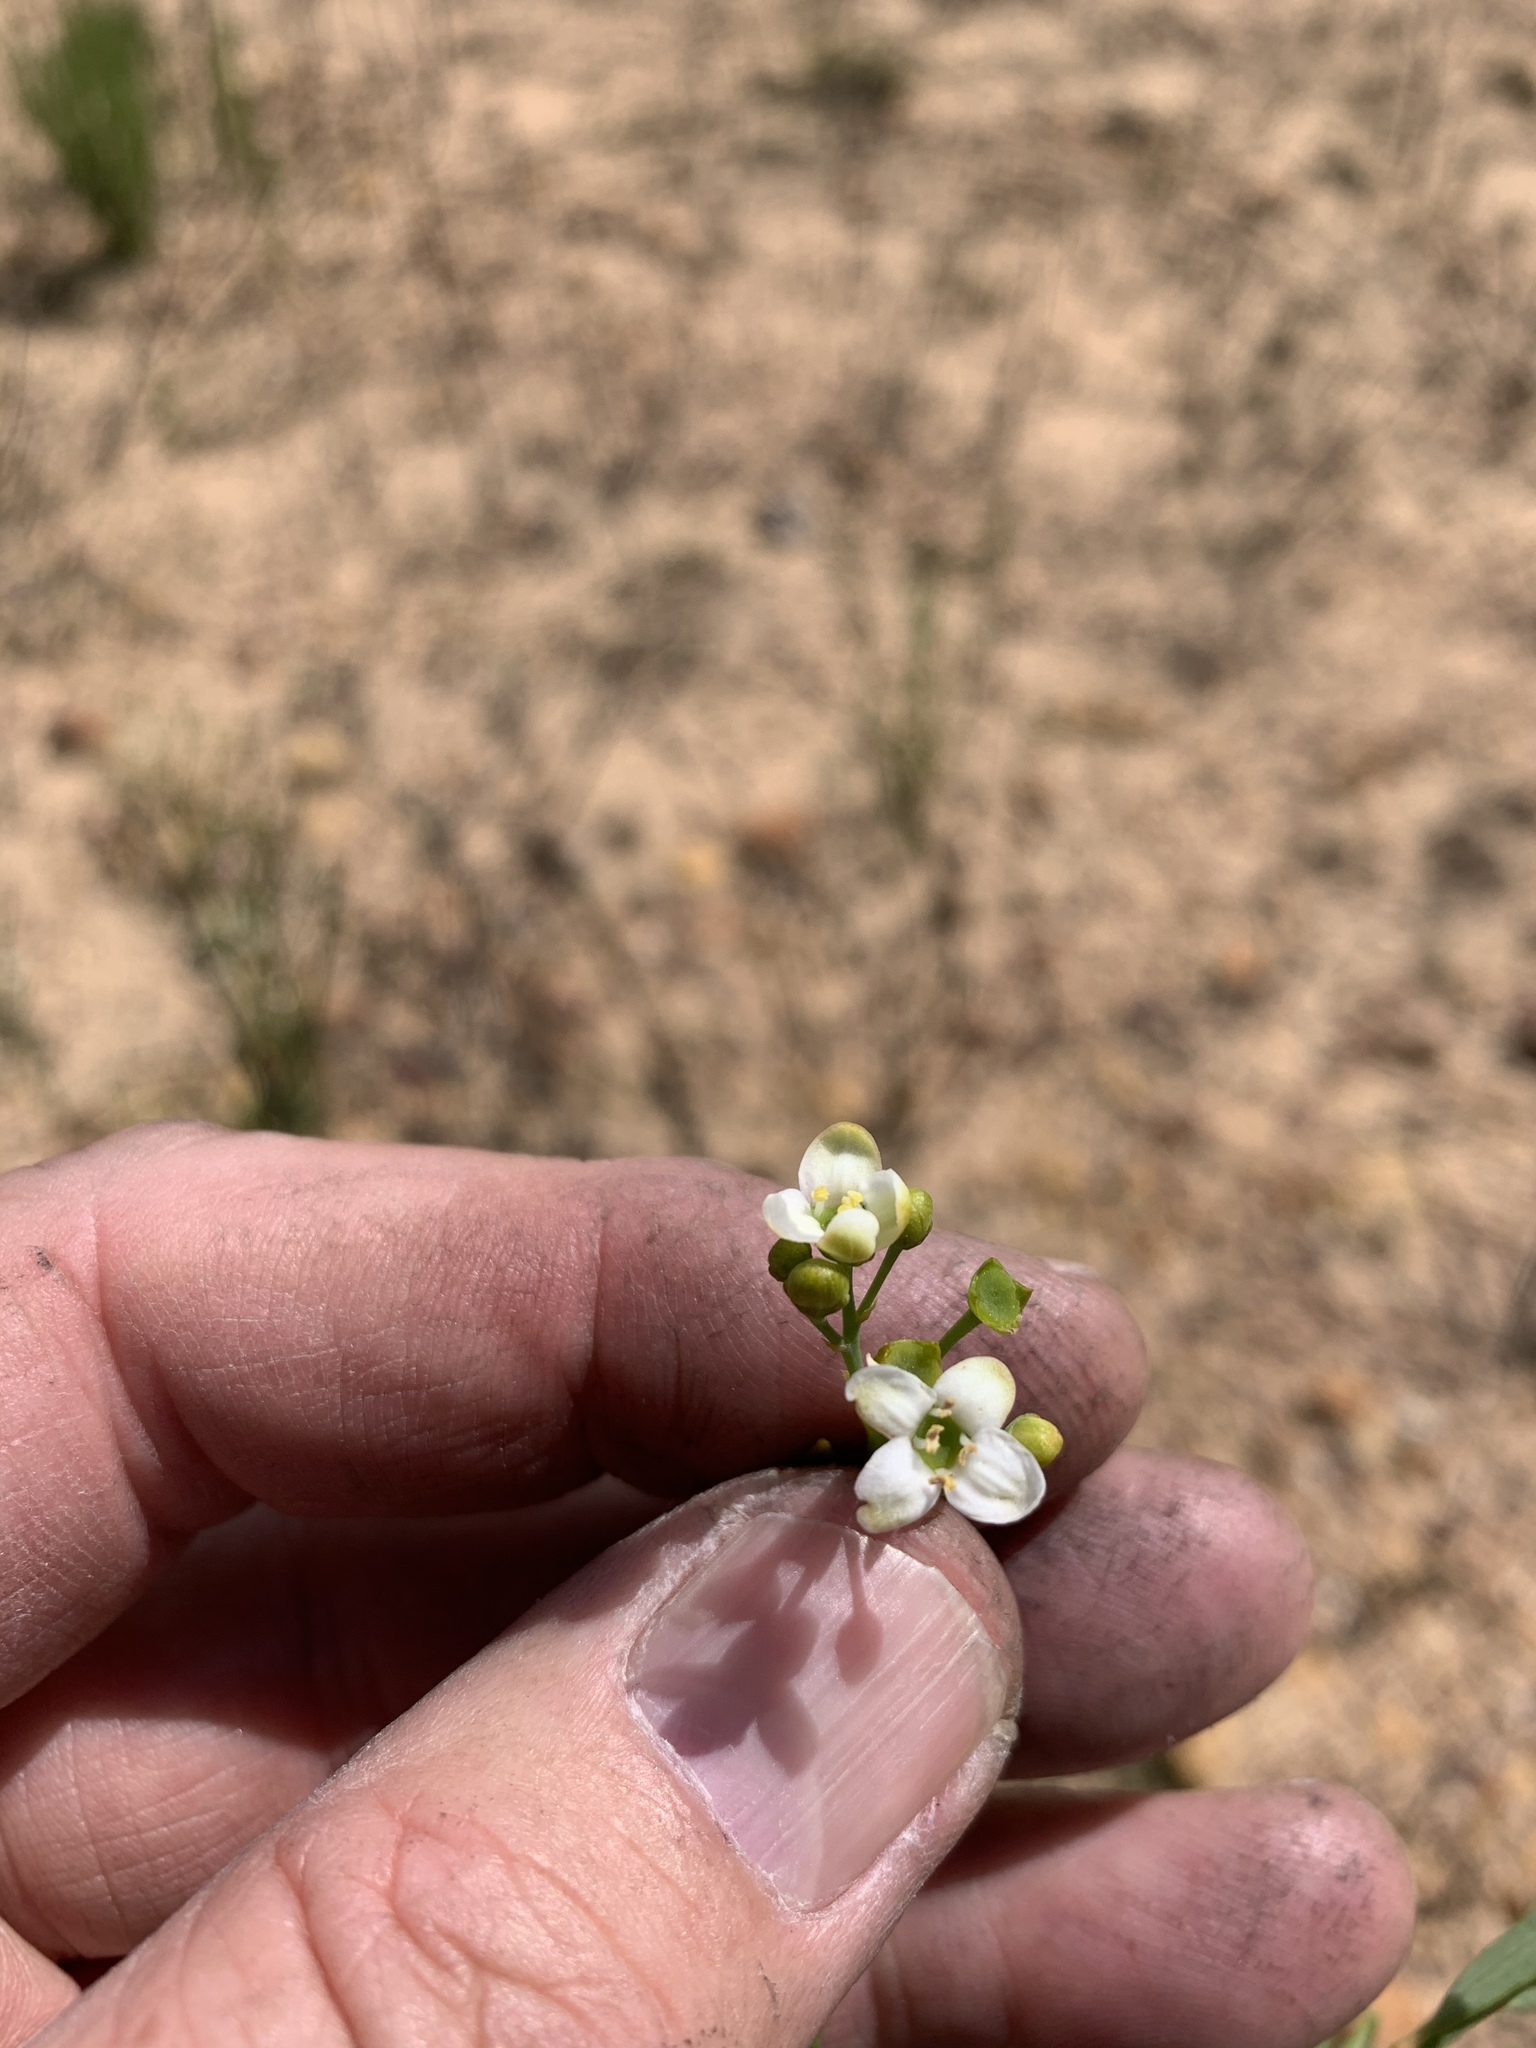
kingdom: Plantae
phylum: Tracheophyta
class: Magnoliopsida
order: Solanales
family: Montiniaceae
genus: Montinia
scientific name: Montinia caryophyllacea
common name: Wild clove-bush
